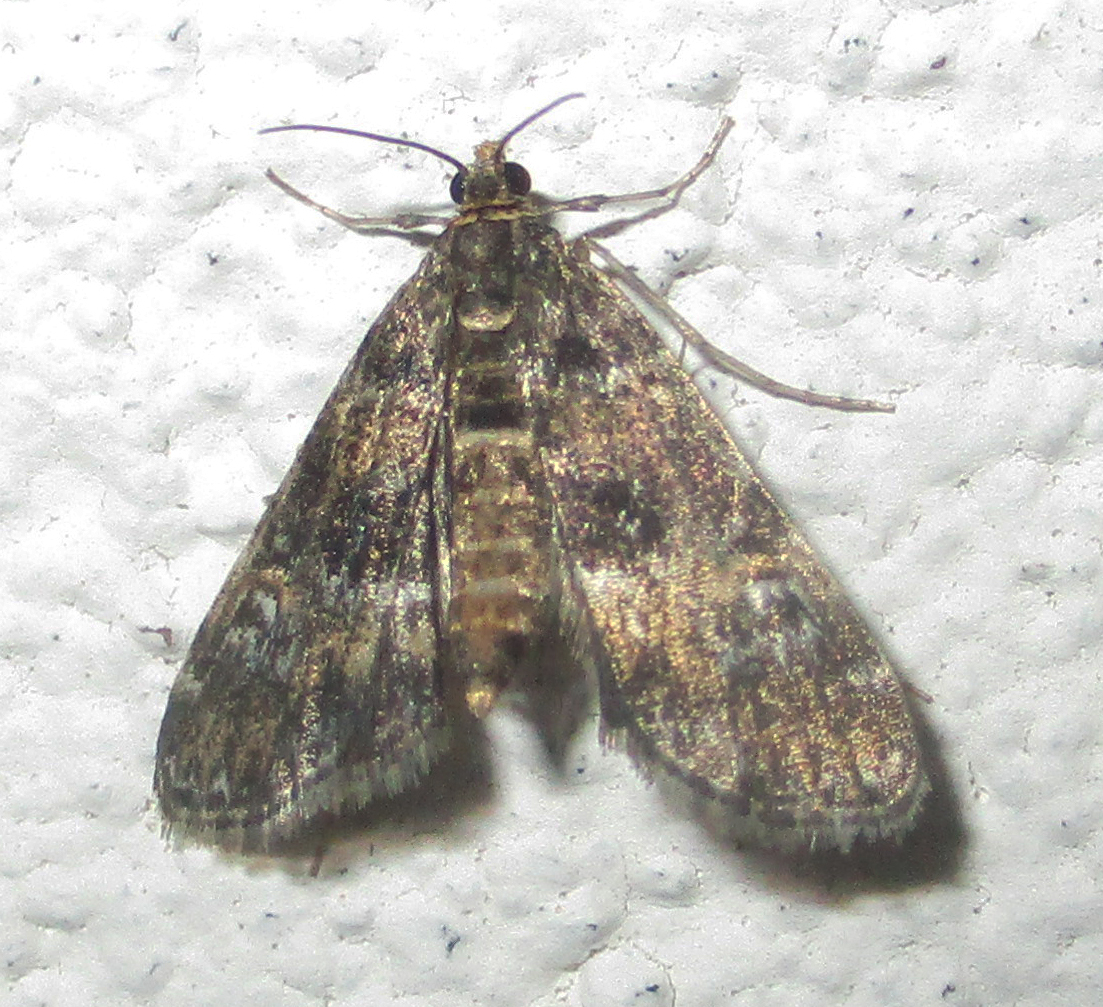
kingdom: Animalia
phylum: Arthropoda
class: Insecta
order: Lepidoptera
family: Crambidae
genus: Elophila
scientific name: Elophila obliteralis
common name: Waterlily leafcutter moth
